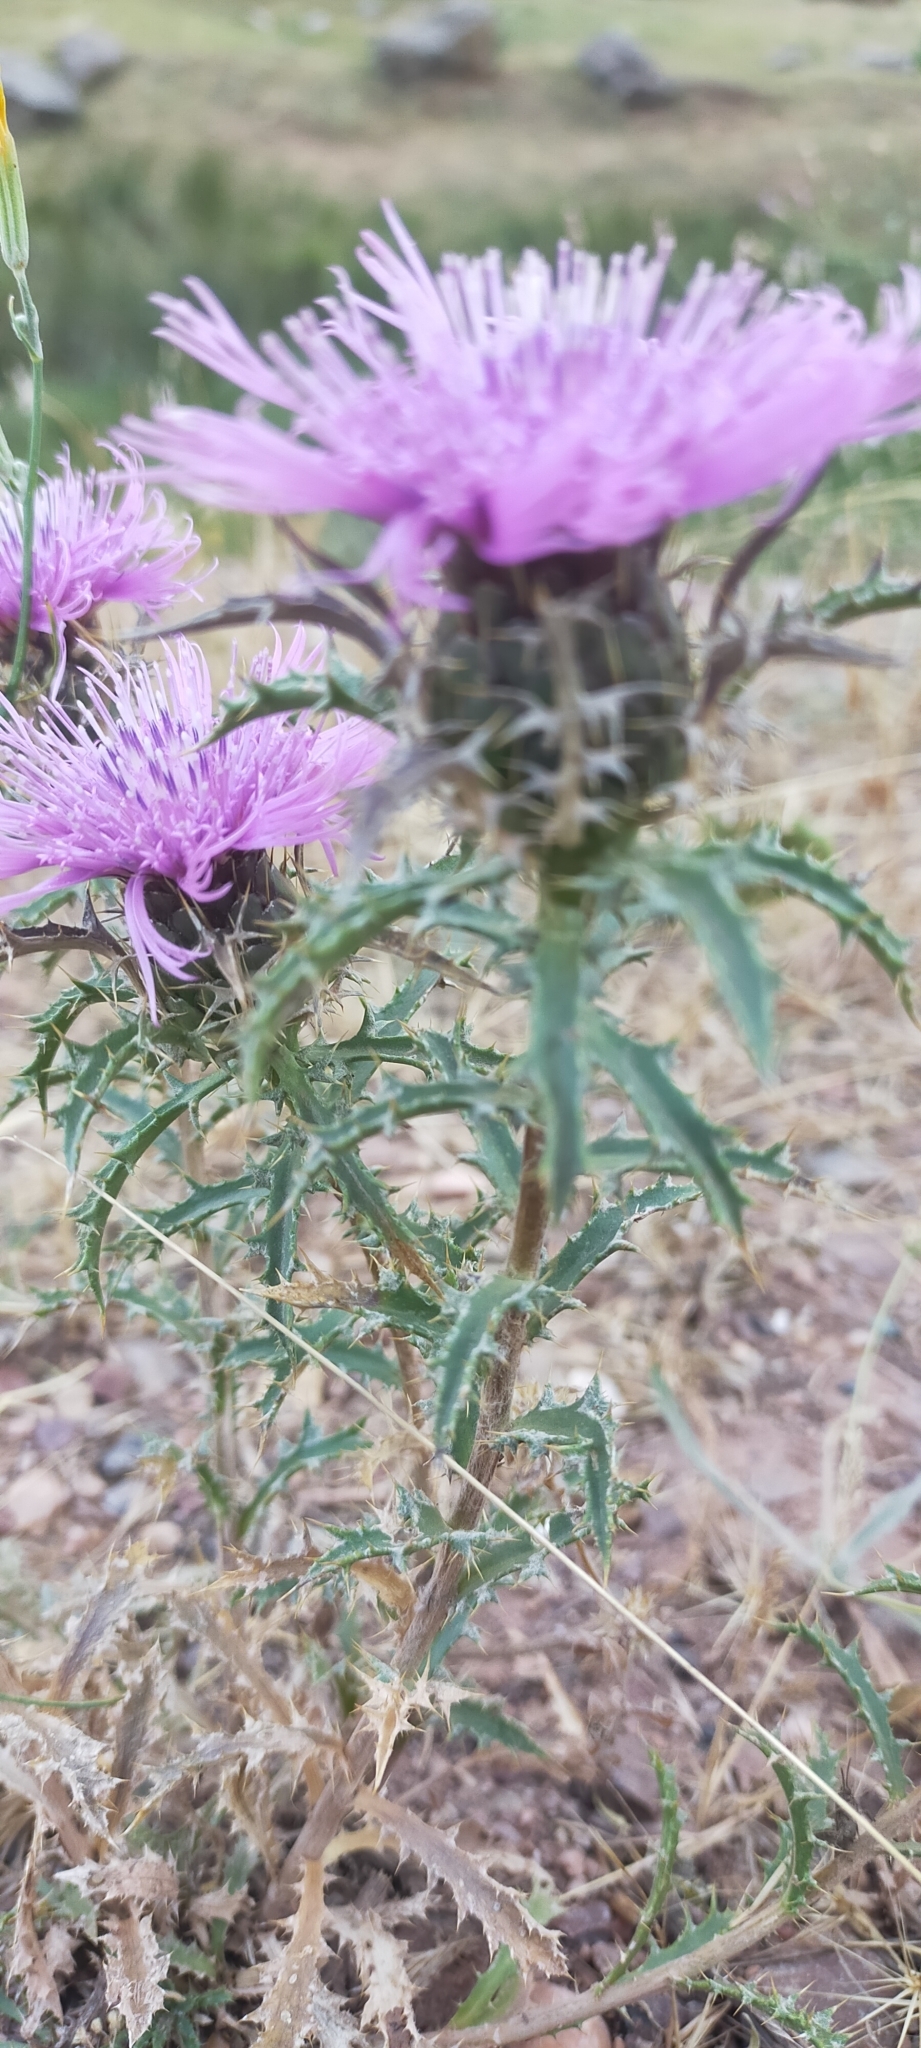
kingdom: Plantae
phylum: Tracheophyta
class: Magnoliopsida
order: Asterales
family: Asteraceae
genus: Atractylis
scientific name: Atractylis humilis
